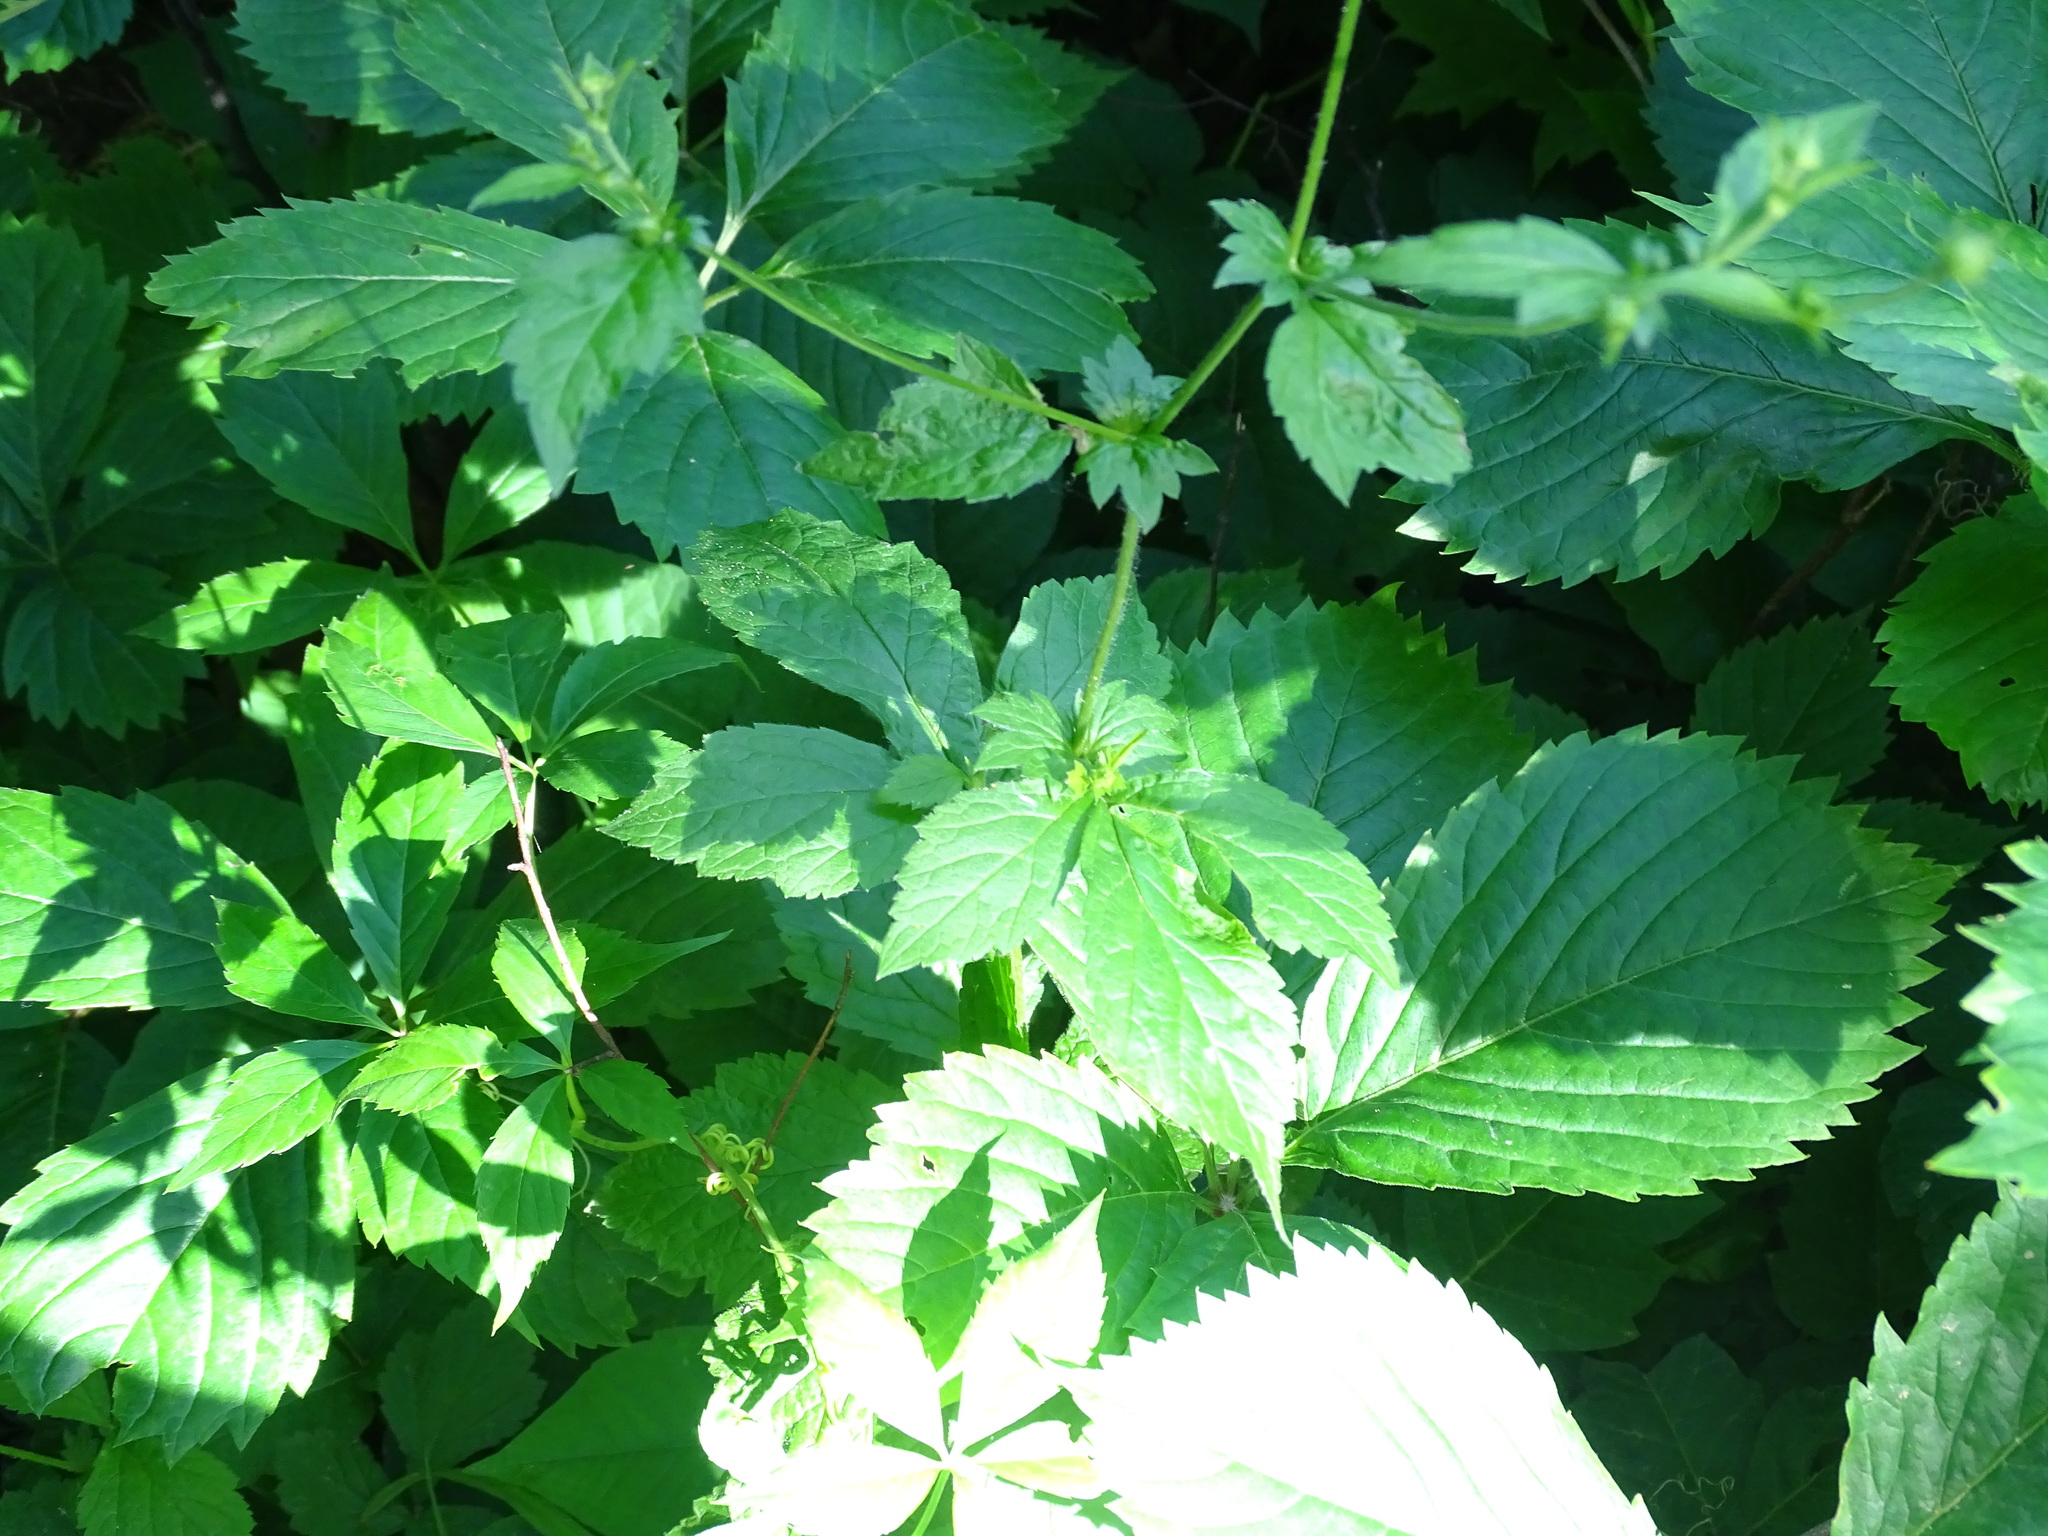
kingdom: Plantae
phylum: Tracheophyta
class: Magnoliopsida
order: Rosales
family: Rosaceae
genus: Geum
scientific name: Geum urbanum
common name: Wood avens
